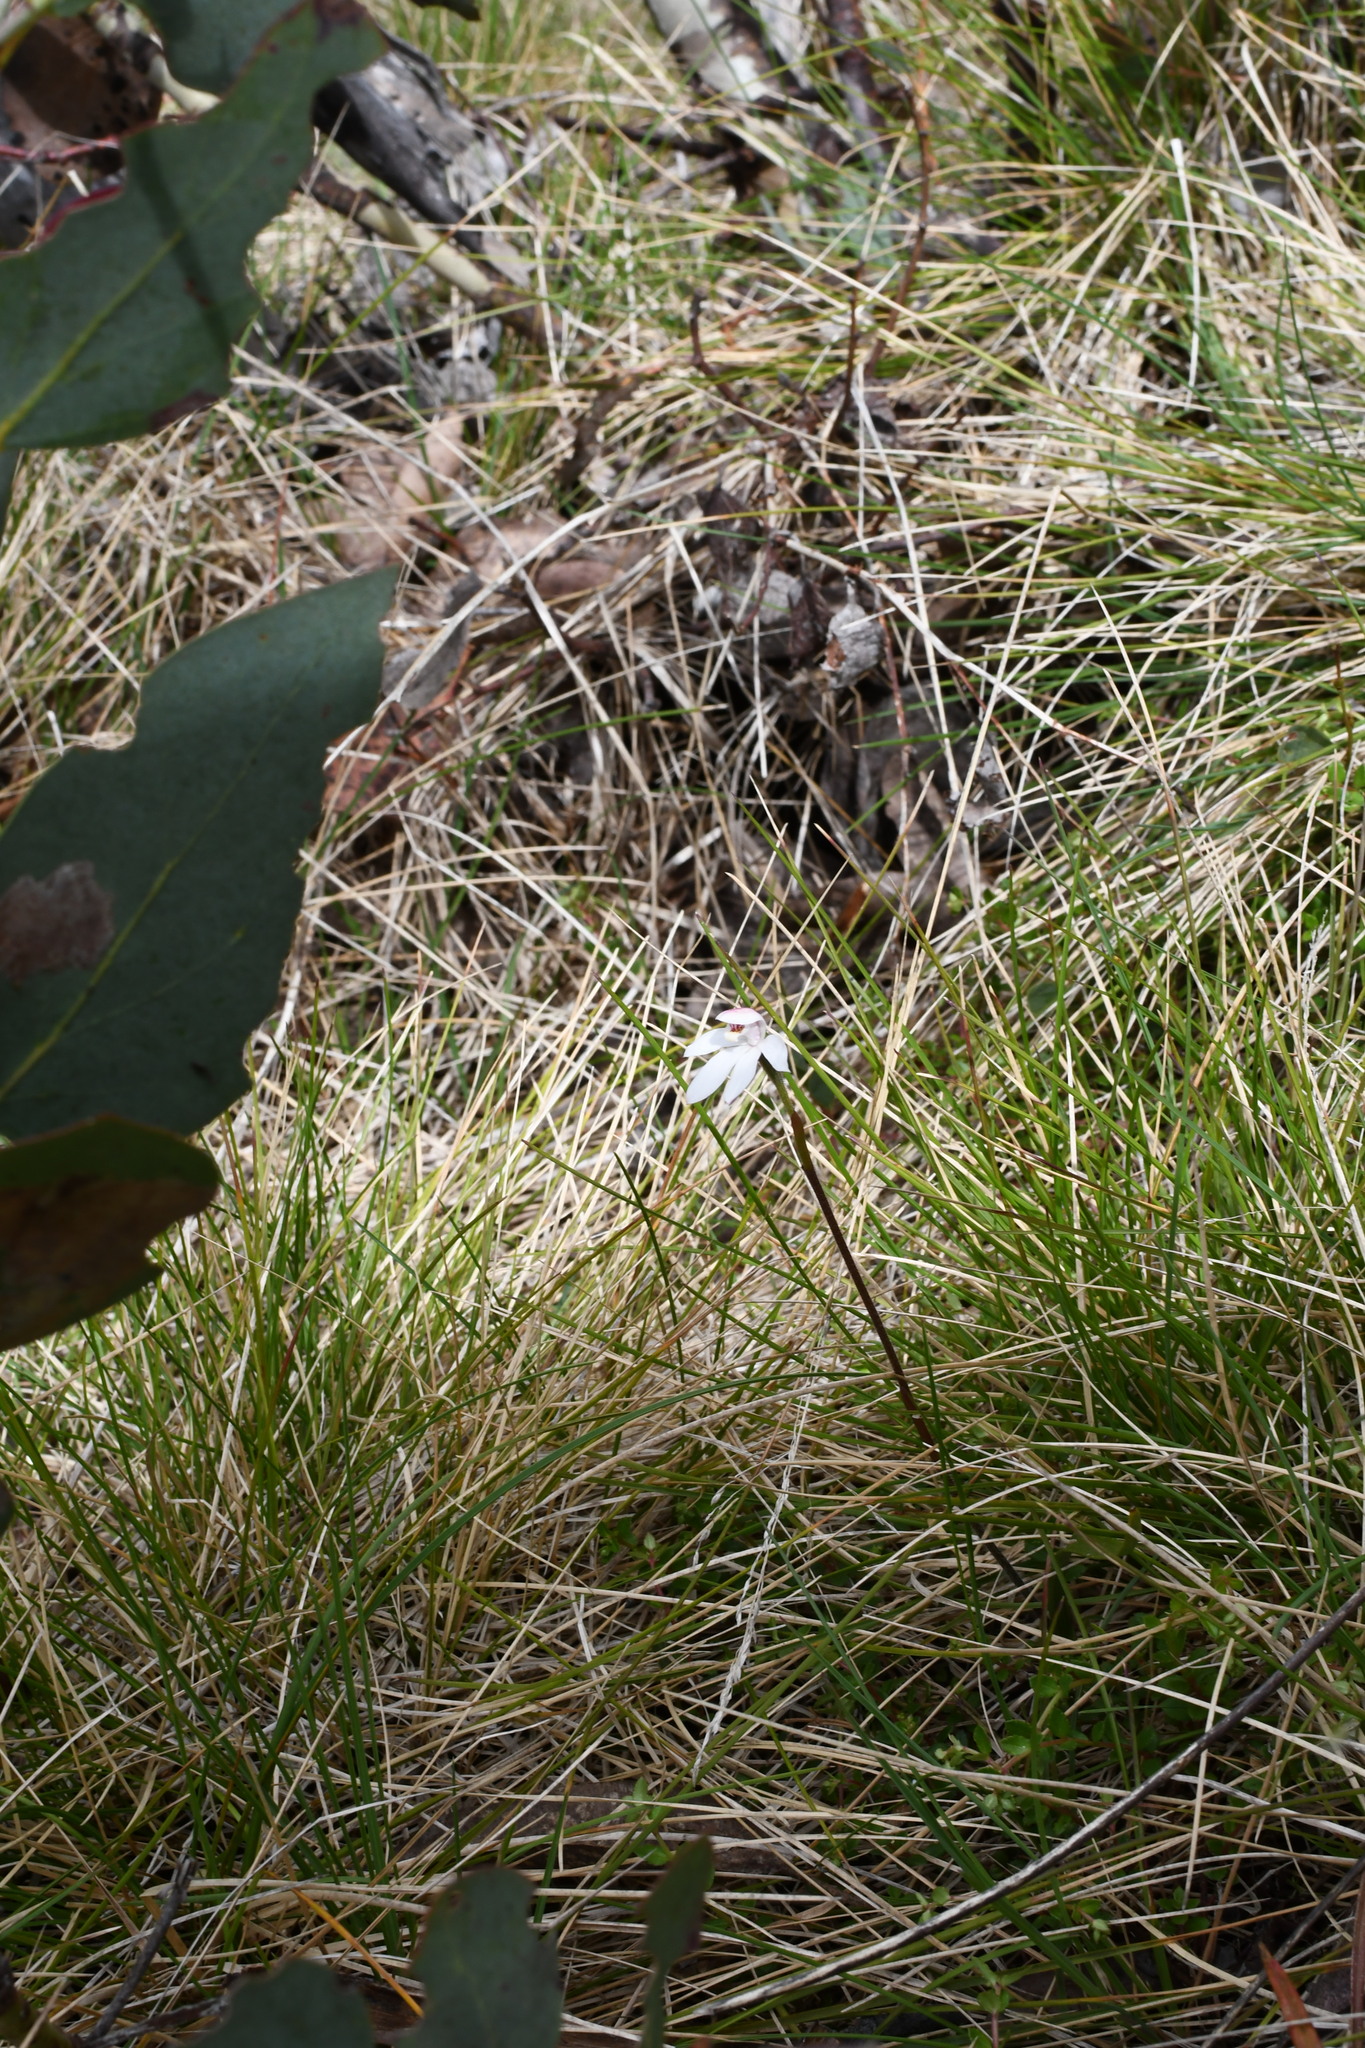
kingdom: Plantae
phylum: Tracheophyta
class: Liliopsida
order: Asparagales
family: Orchidaceae
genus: Caladenia
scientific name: Caladenia alpina
